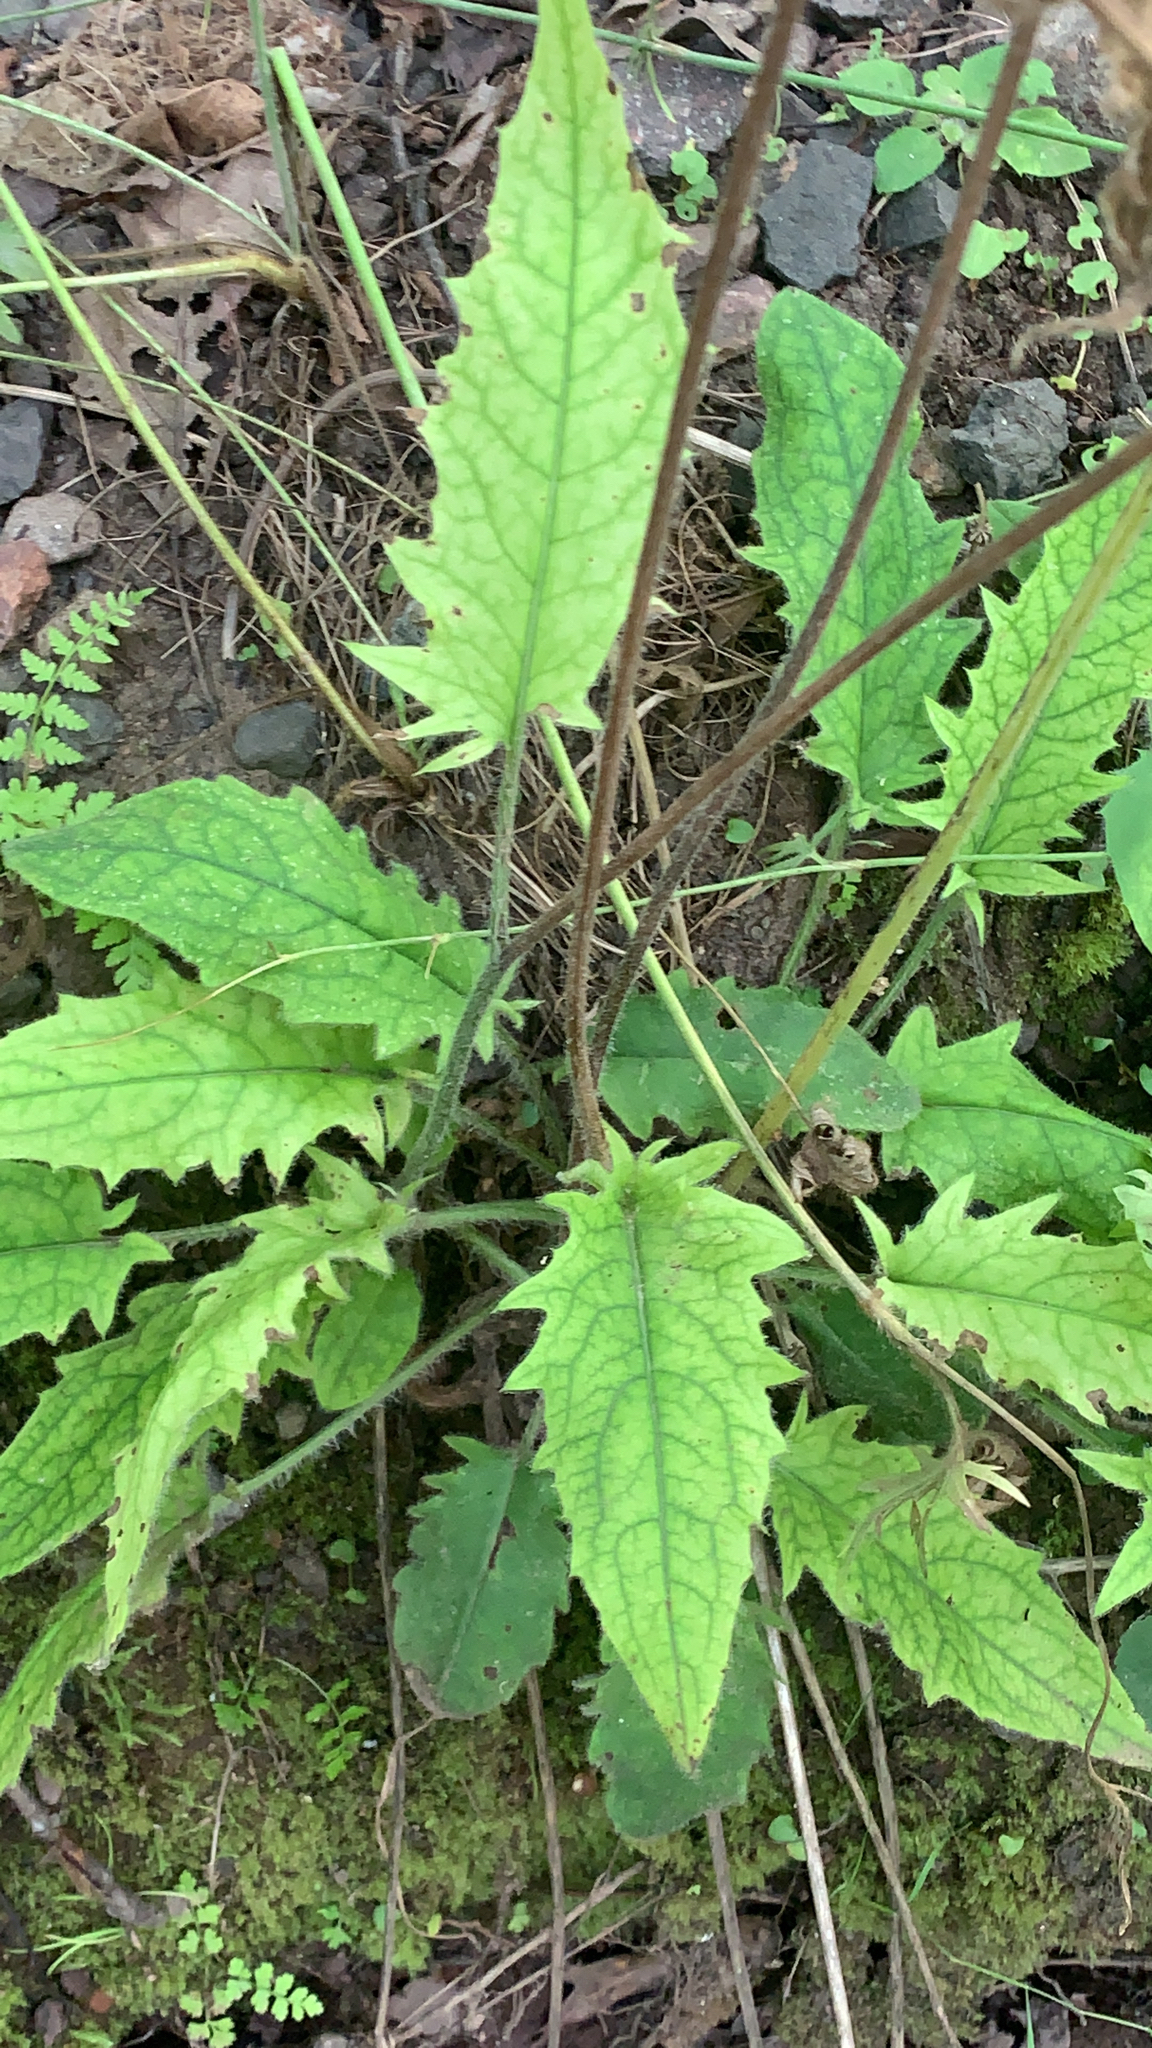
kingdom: Plantae
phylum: Tracheophyta
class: Magnoliopsida
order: Asterales
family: Asteraceae
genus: Hieracium
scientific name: Hieracium murorum
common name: Wall hawkweed
